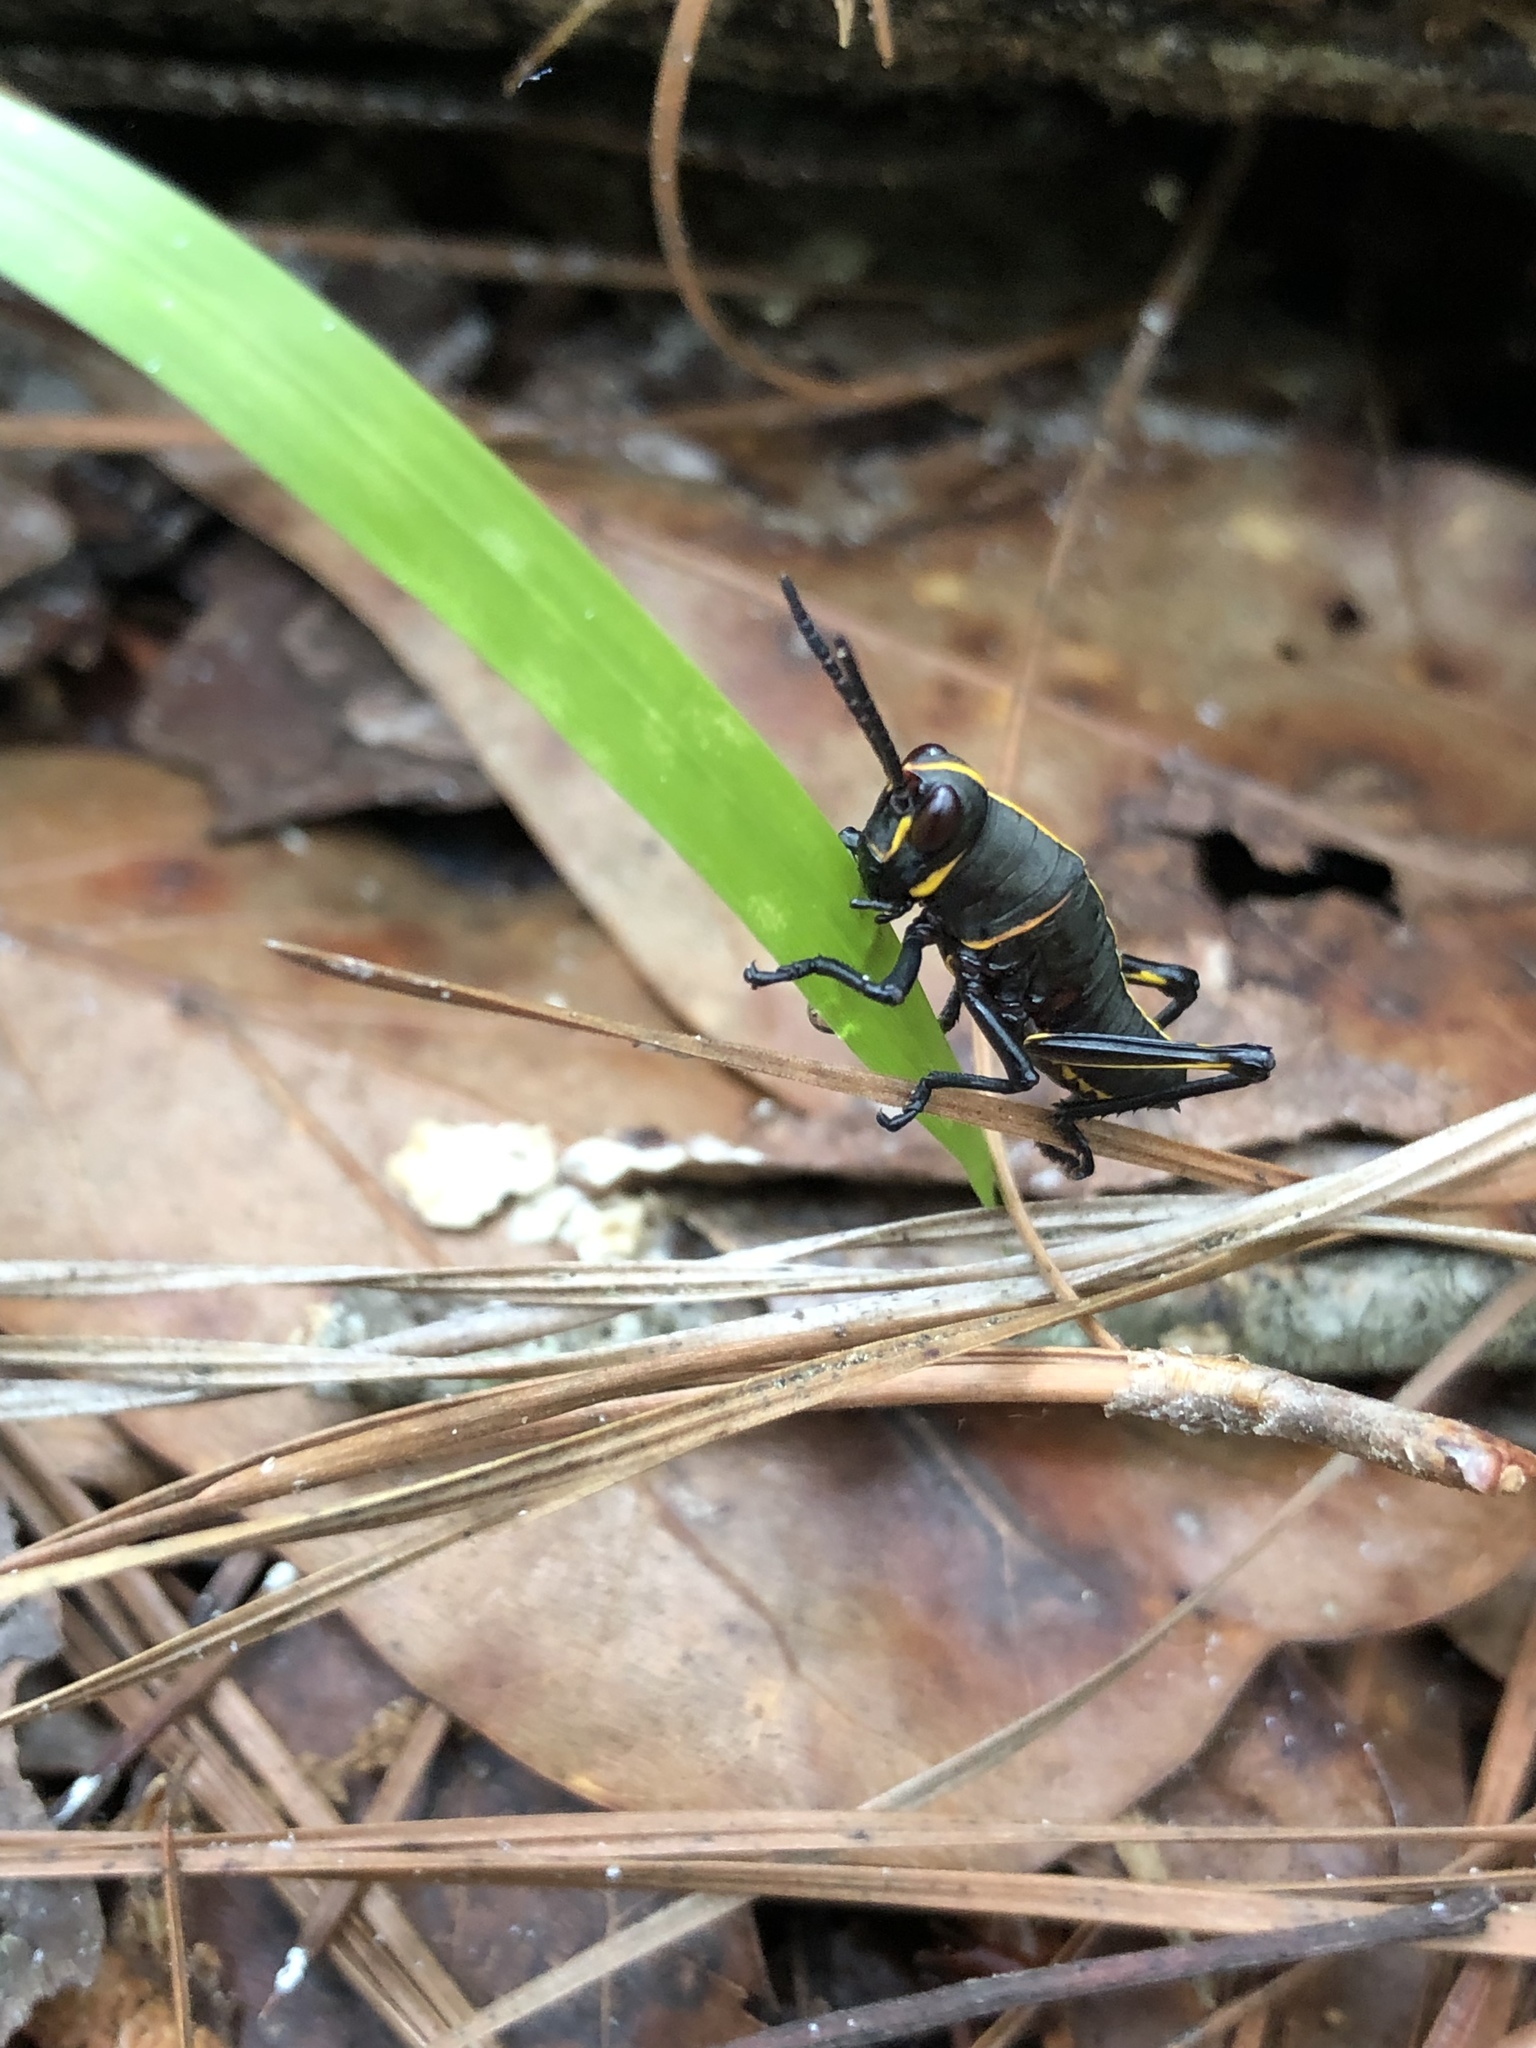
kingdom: Animalia
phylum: Arthropoda
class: Insecta
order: Orthoptera
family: Romaleidae
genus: Romalea
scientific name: Romalea microptera
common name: Eastern lubber grasshopper
